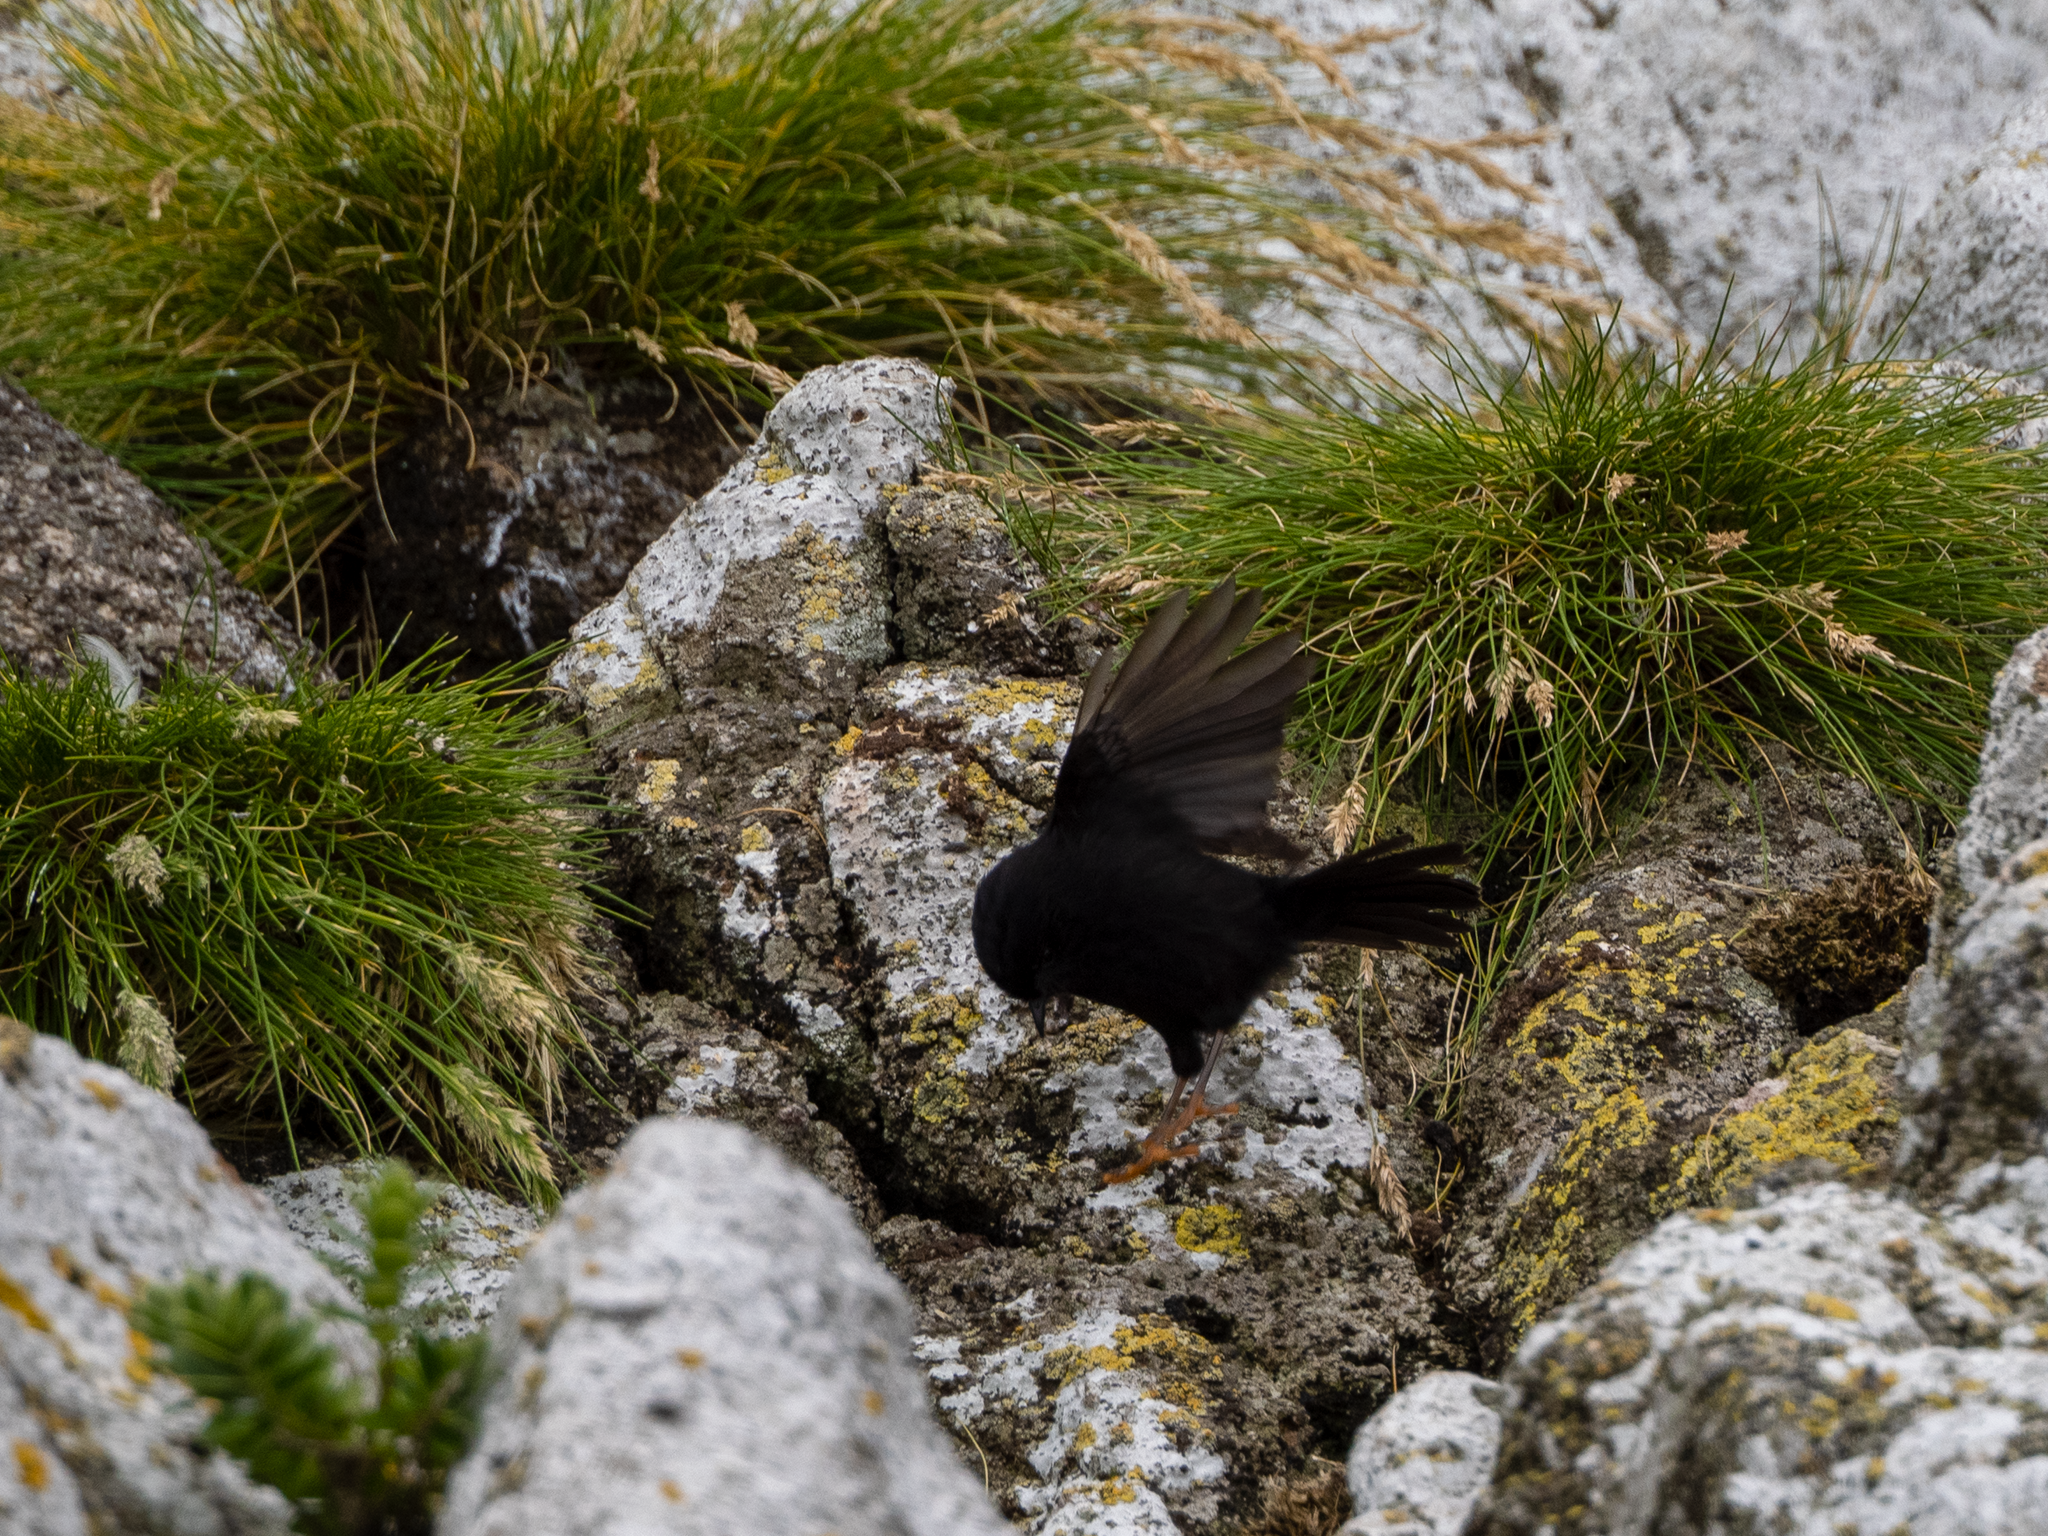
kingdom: Animalia
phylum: Chordata
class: Aves
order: Passeriformes
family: Petroicidae
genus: Petroica
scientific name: Petroica macrocephala
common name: Tomtit
